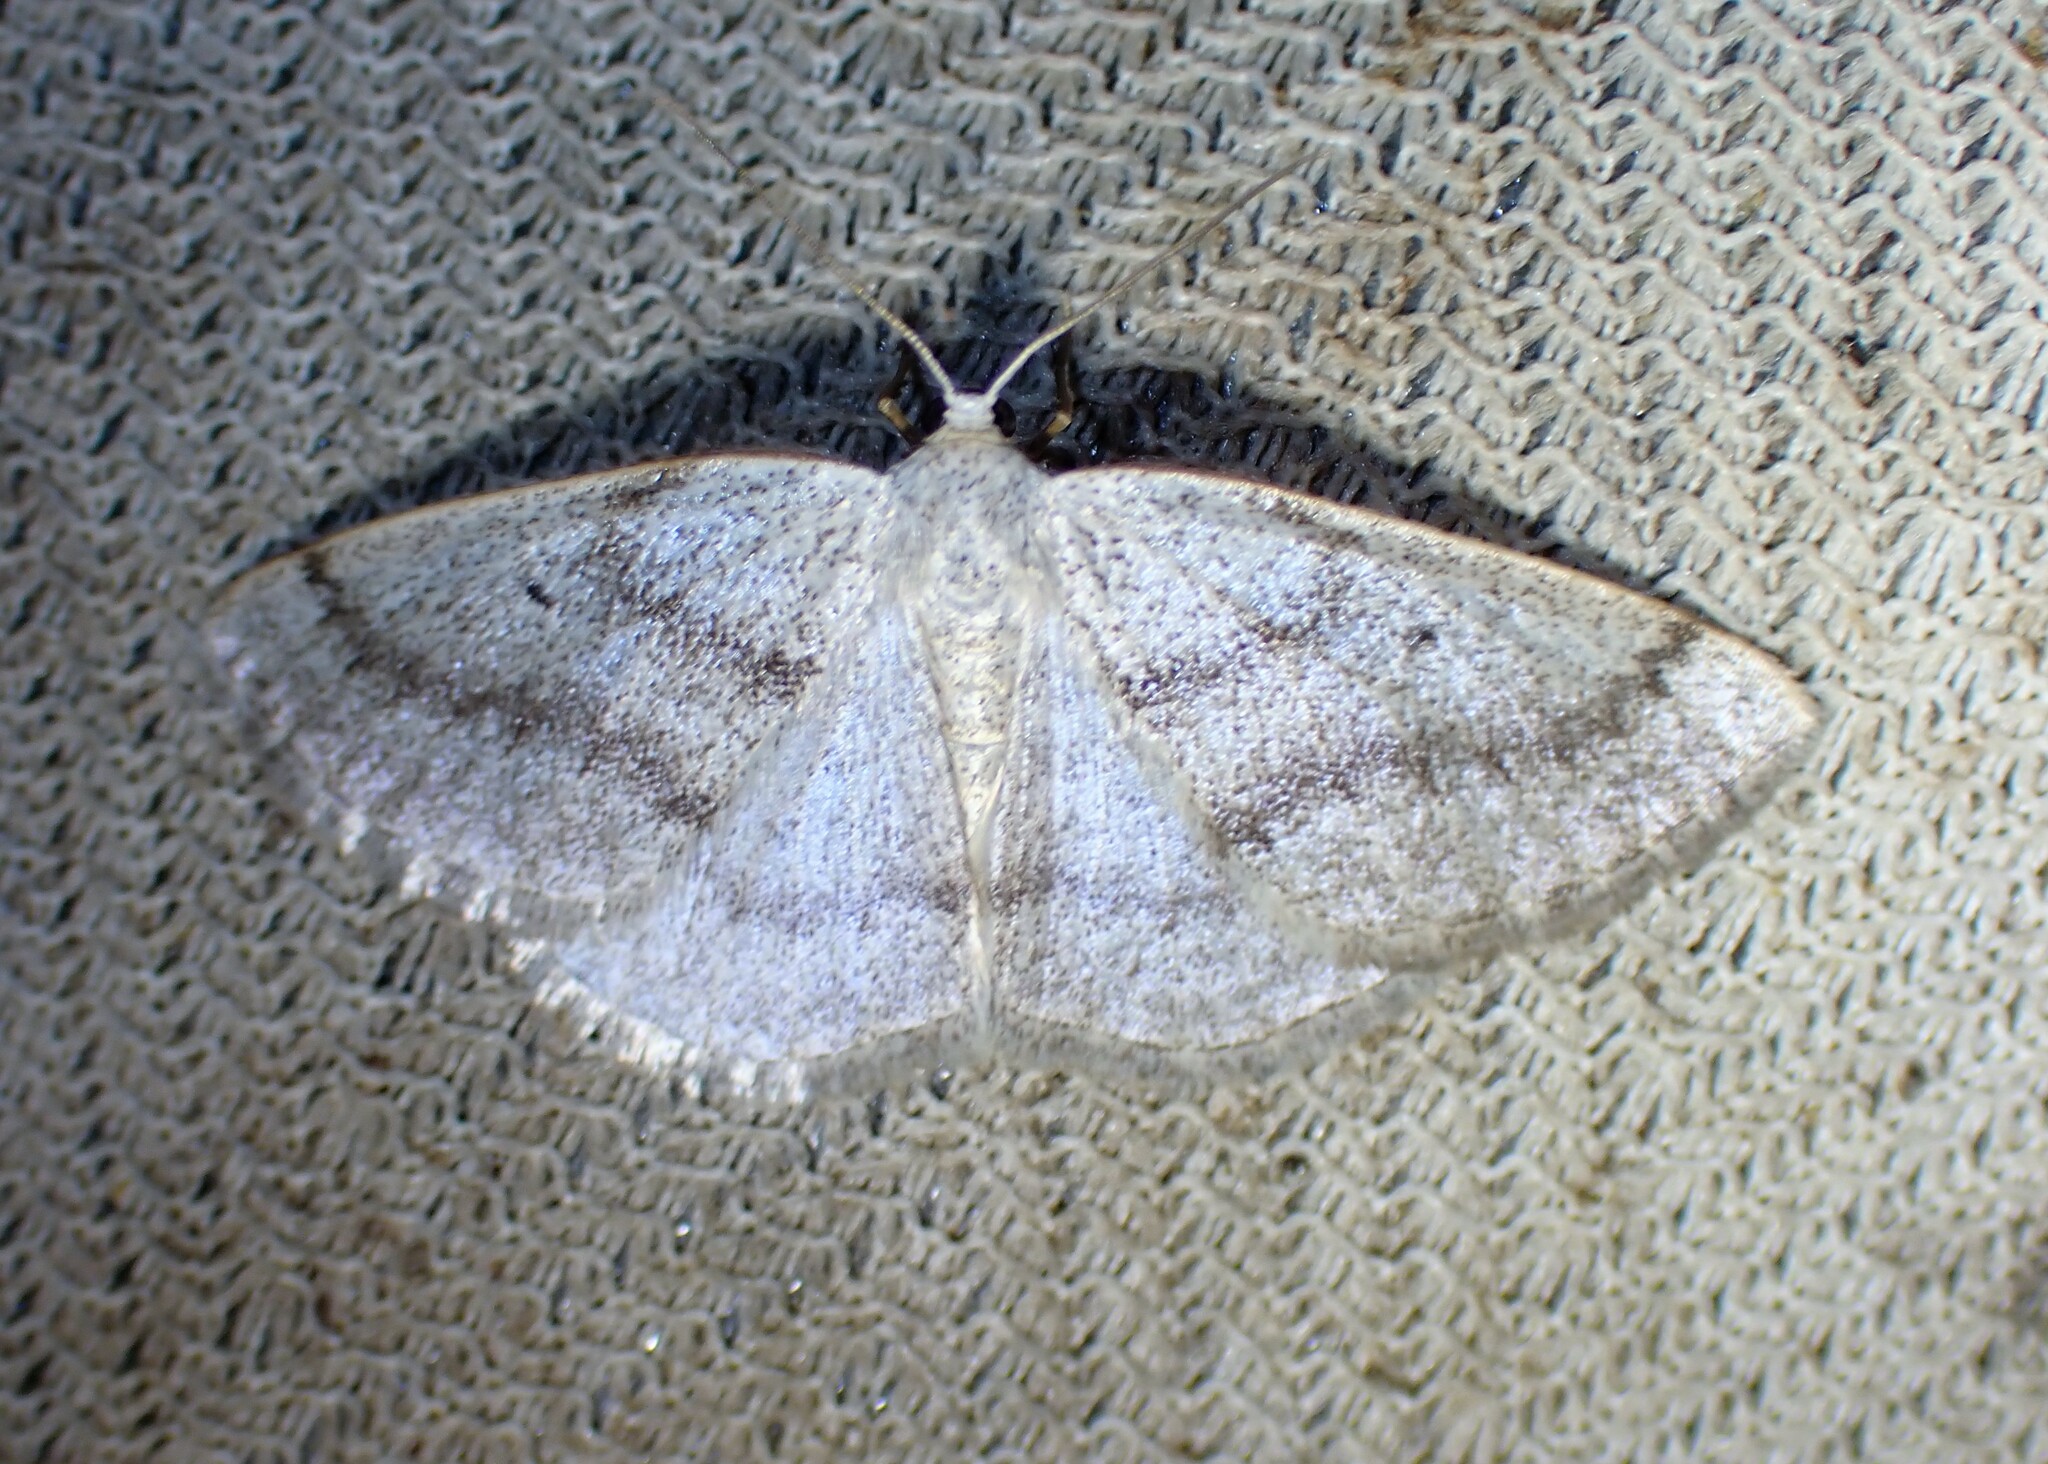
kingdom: Animalia
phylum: Arthropoda
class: Insecta
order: Lepidoptera
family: Geometridae
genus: Lomographa
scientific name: Lomographa glomeraria
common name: Gray spring moth
